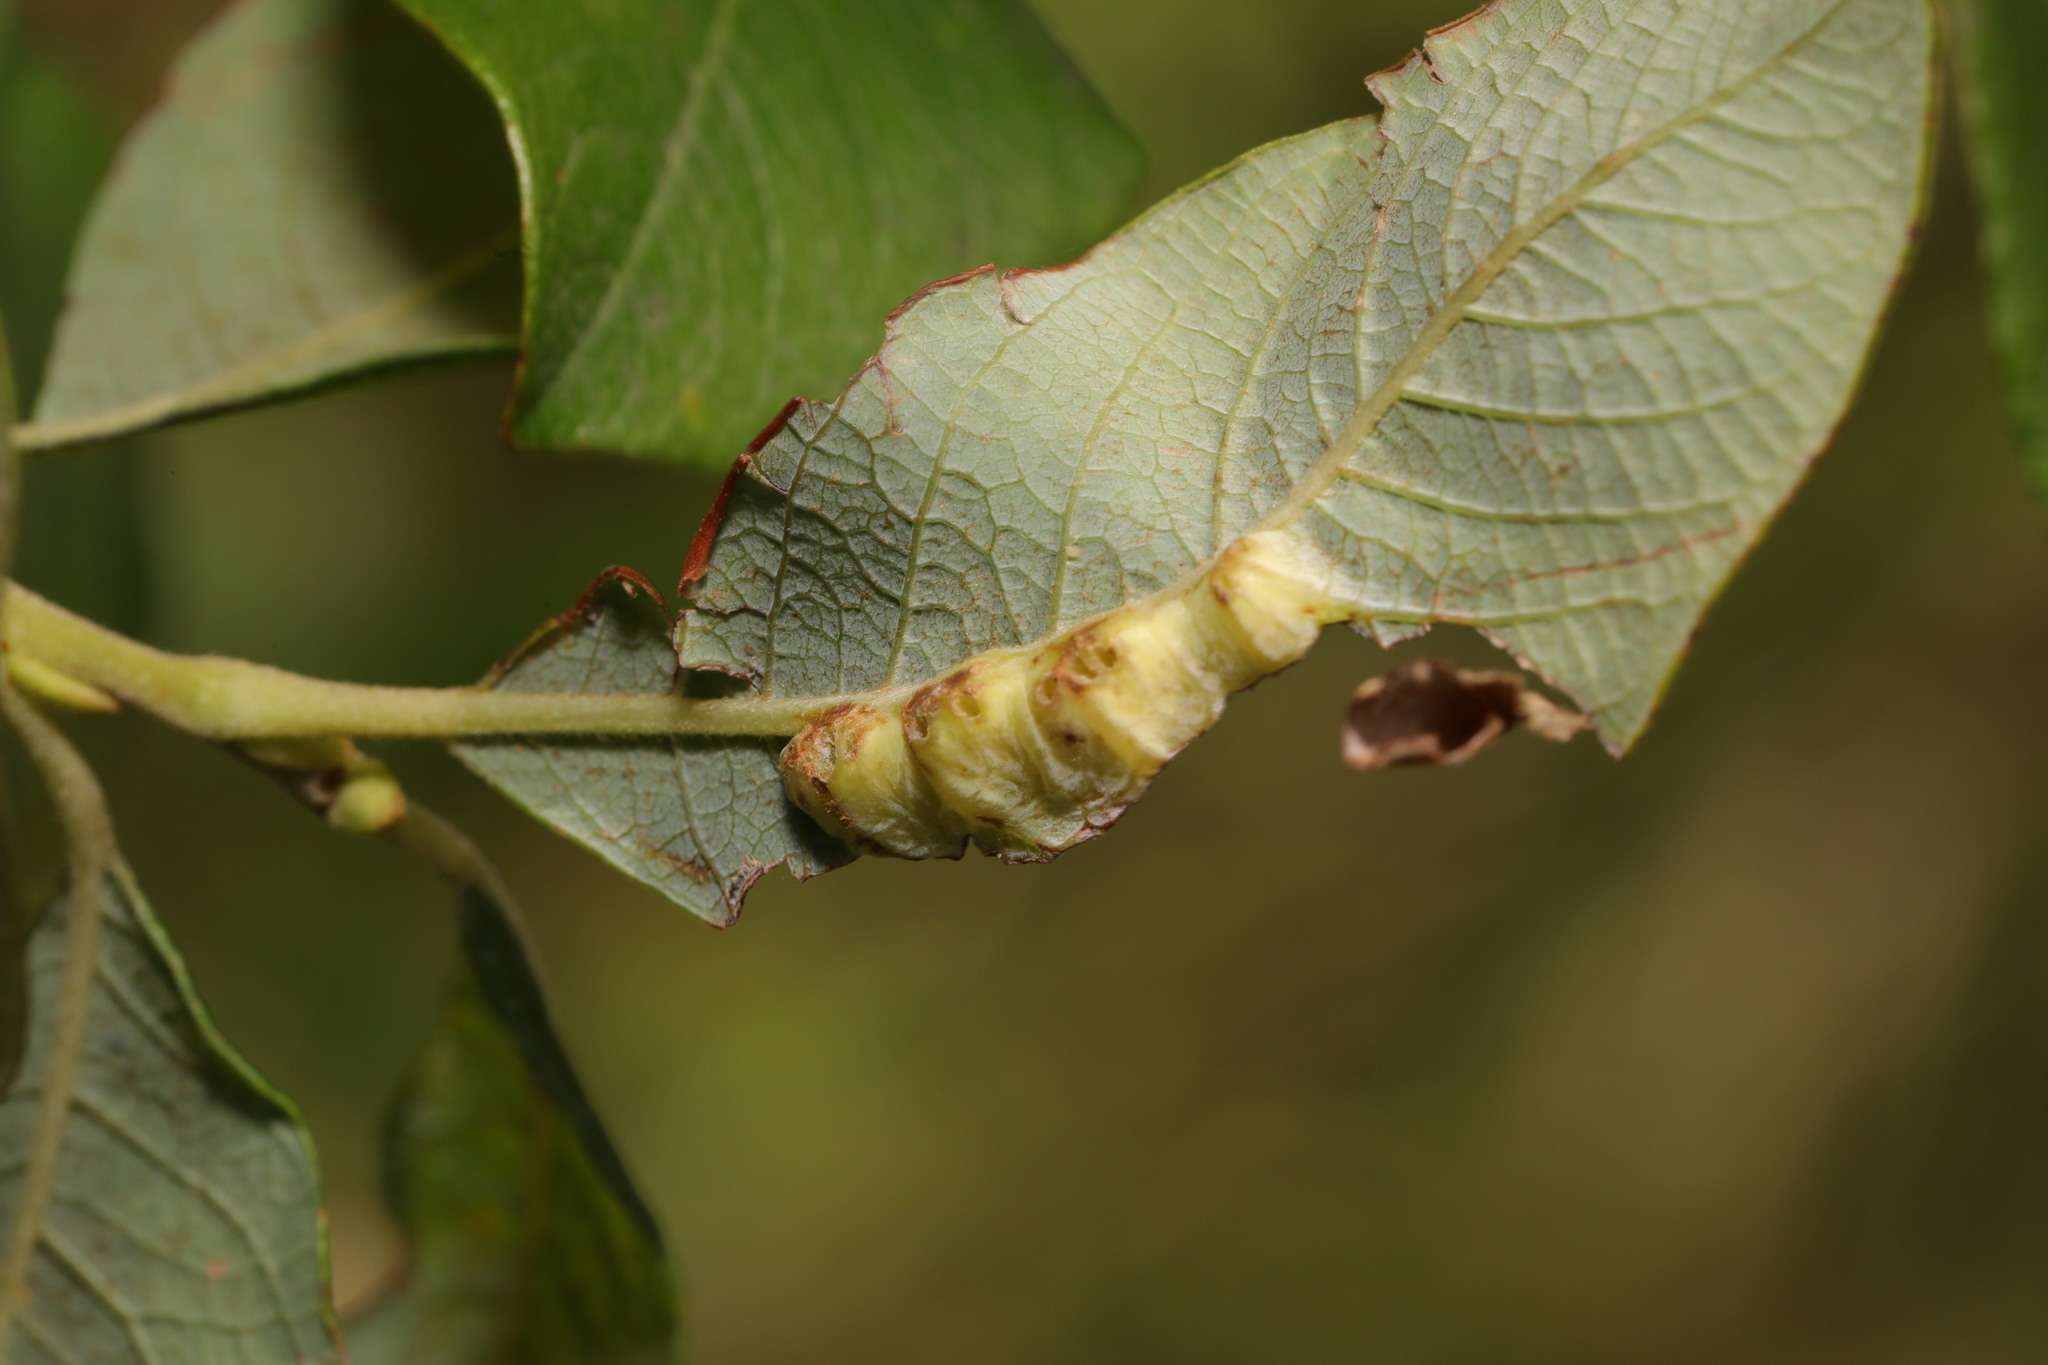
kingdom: Animalia
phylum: Arthropoda
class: Insecta
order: Diptera
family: Cecidomyiidae
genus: Iteomyia
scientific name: Iteomyia major
